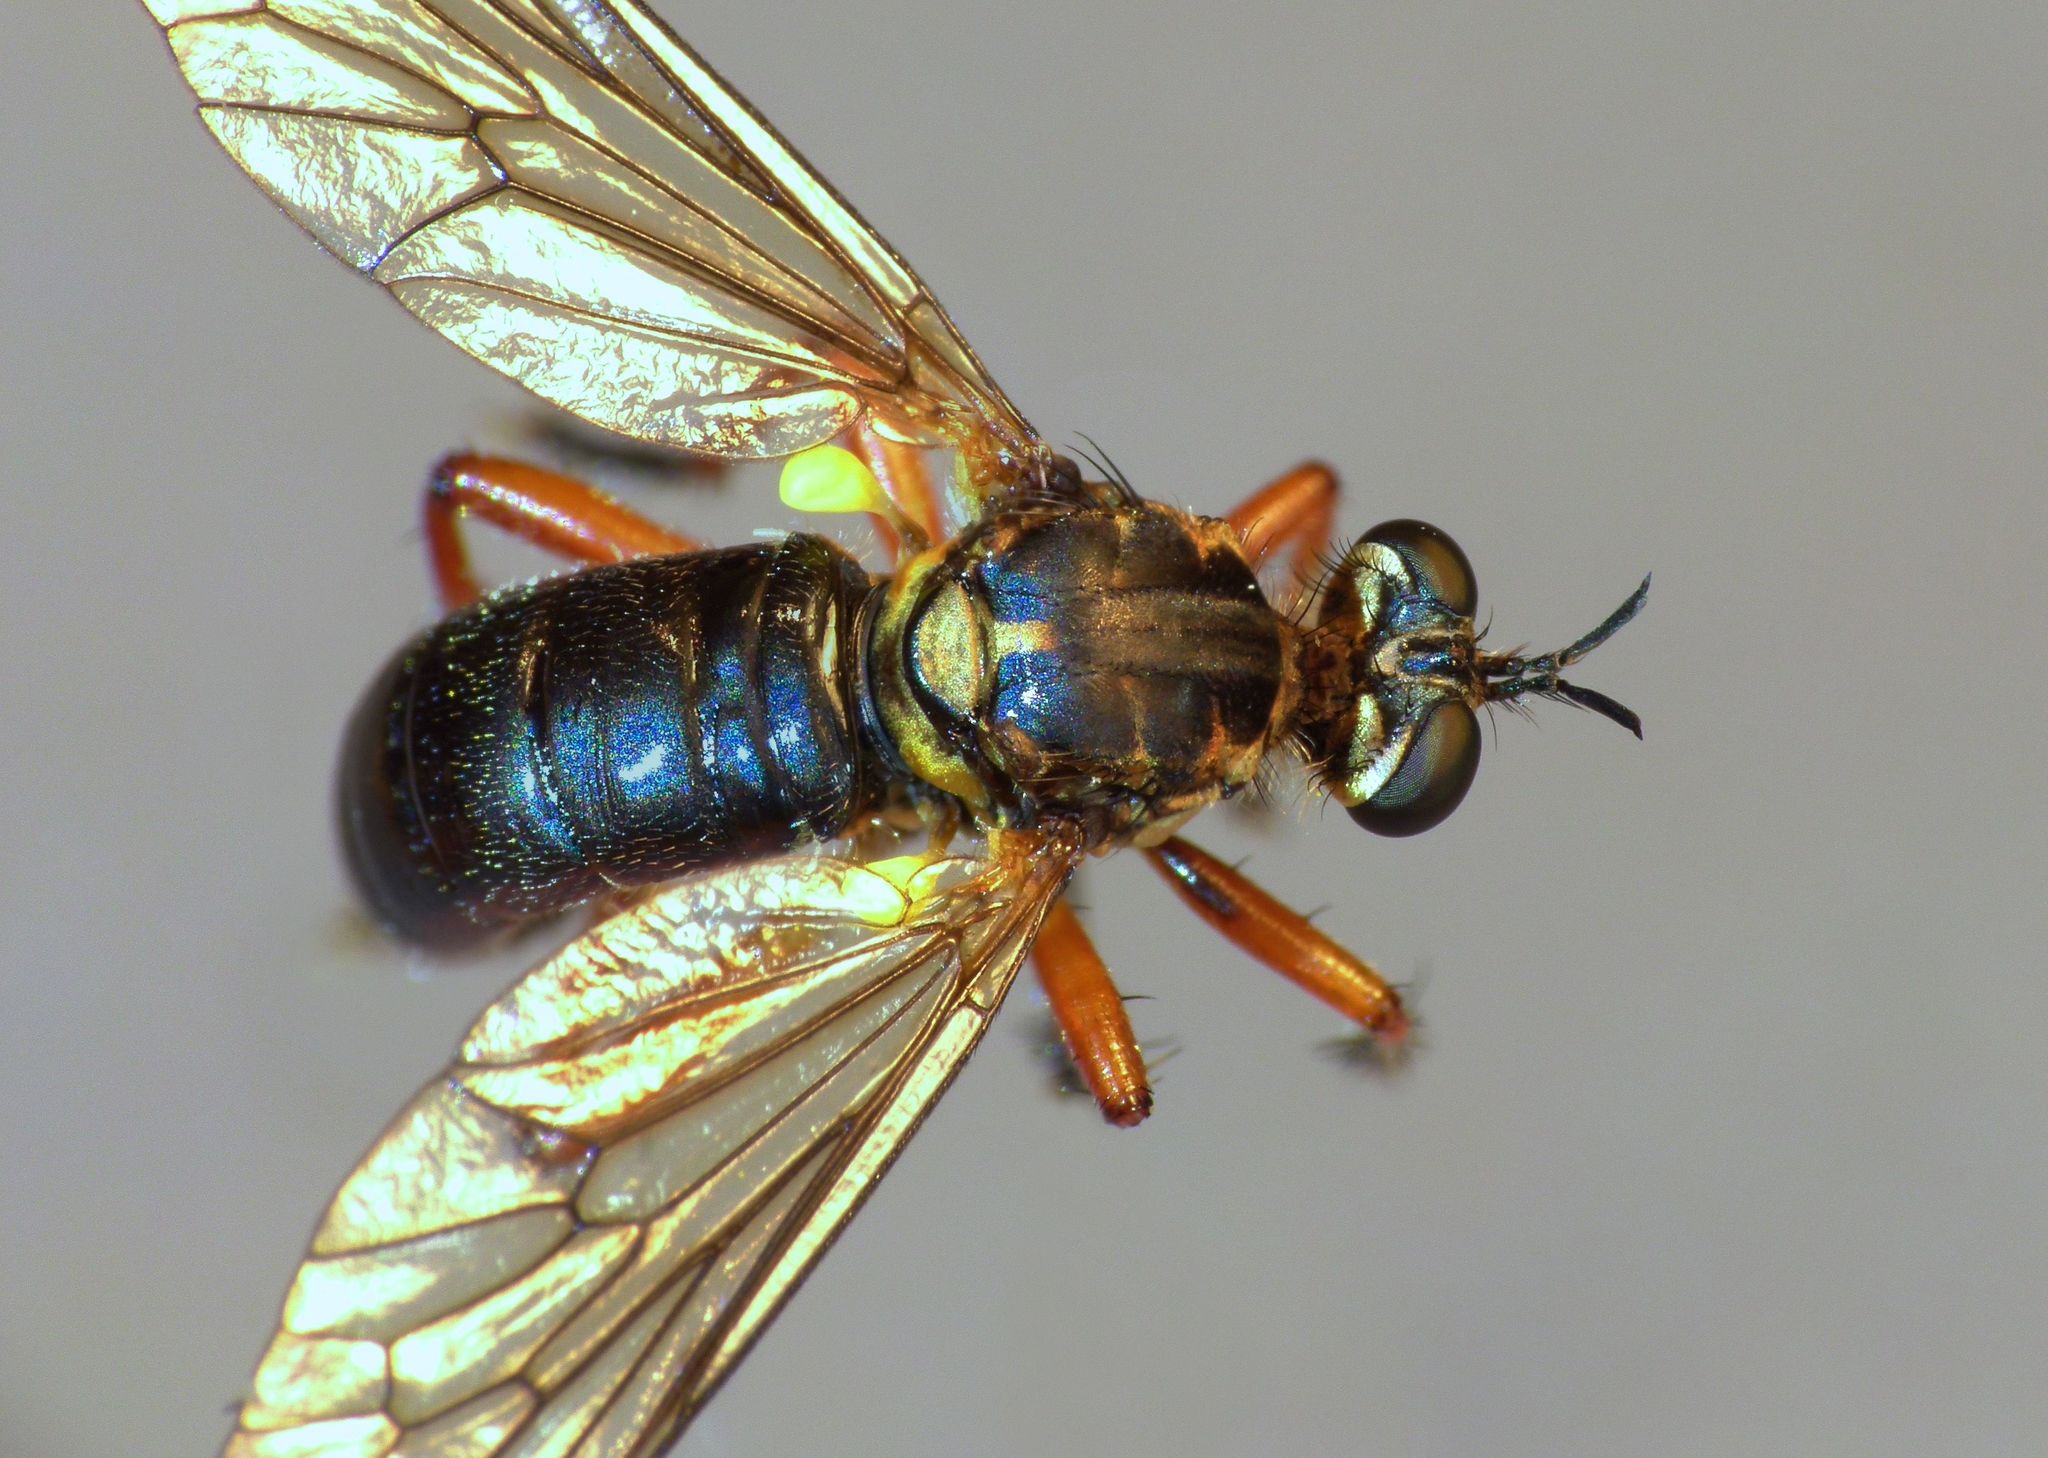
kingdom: Animalia
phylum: Arthropoda
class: Insecta
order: Diptera
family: Asilidae
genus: Saropogon
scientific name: Saropogon fugiens
